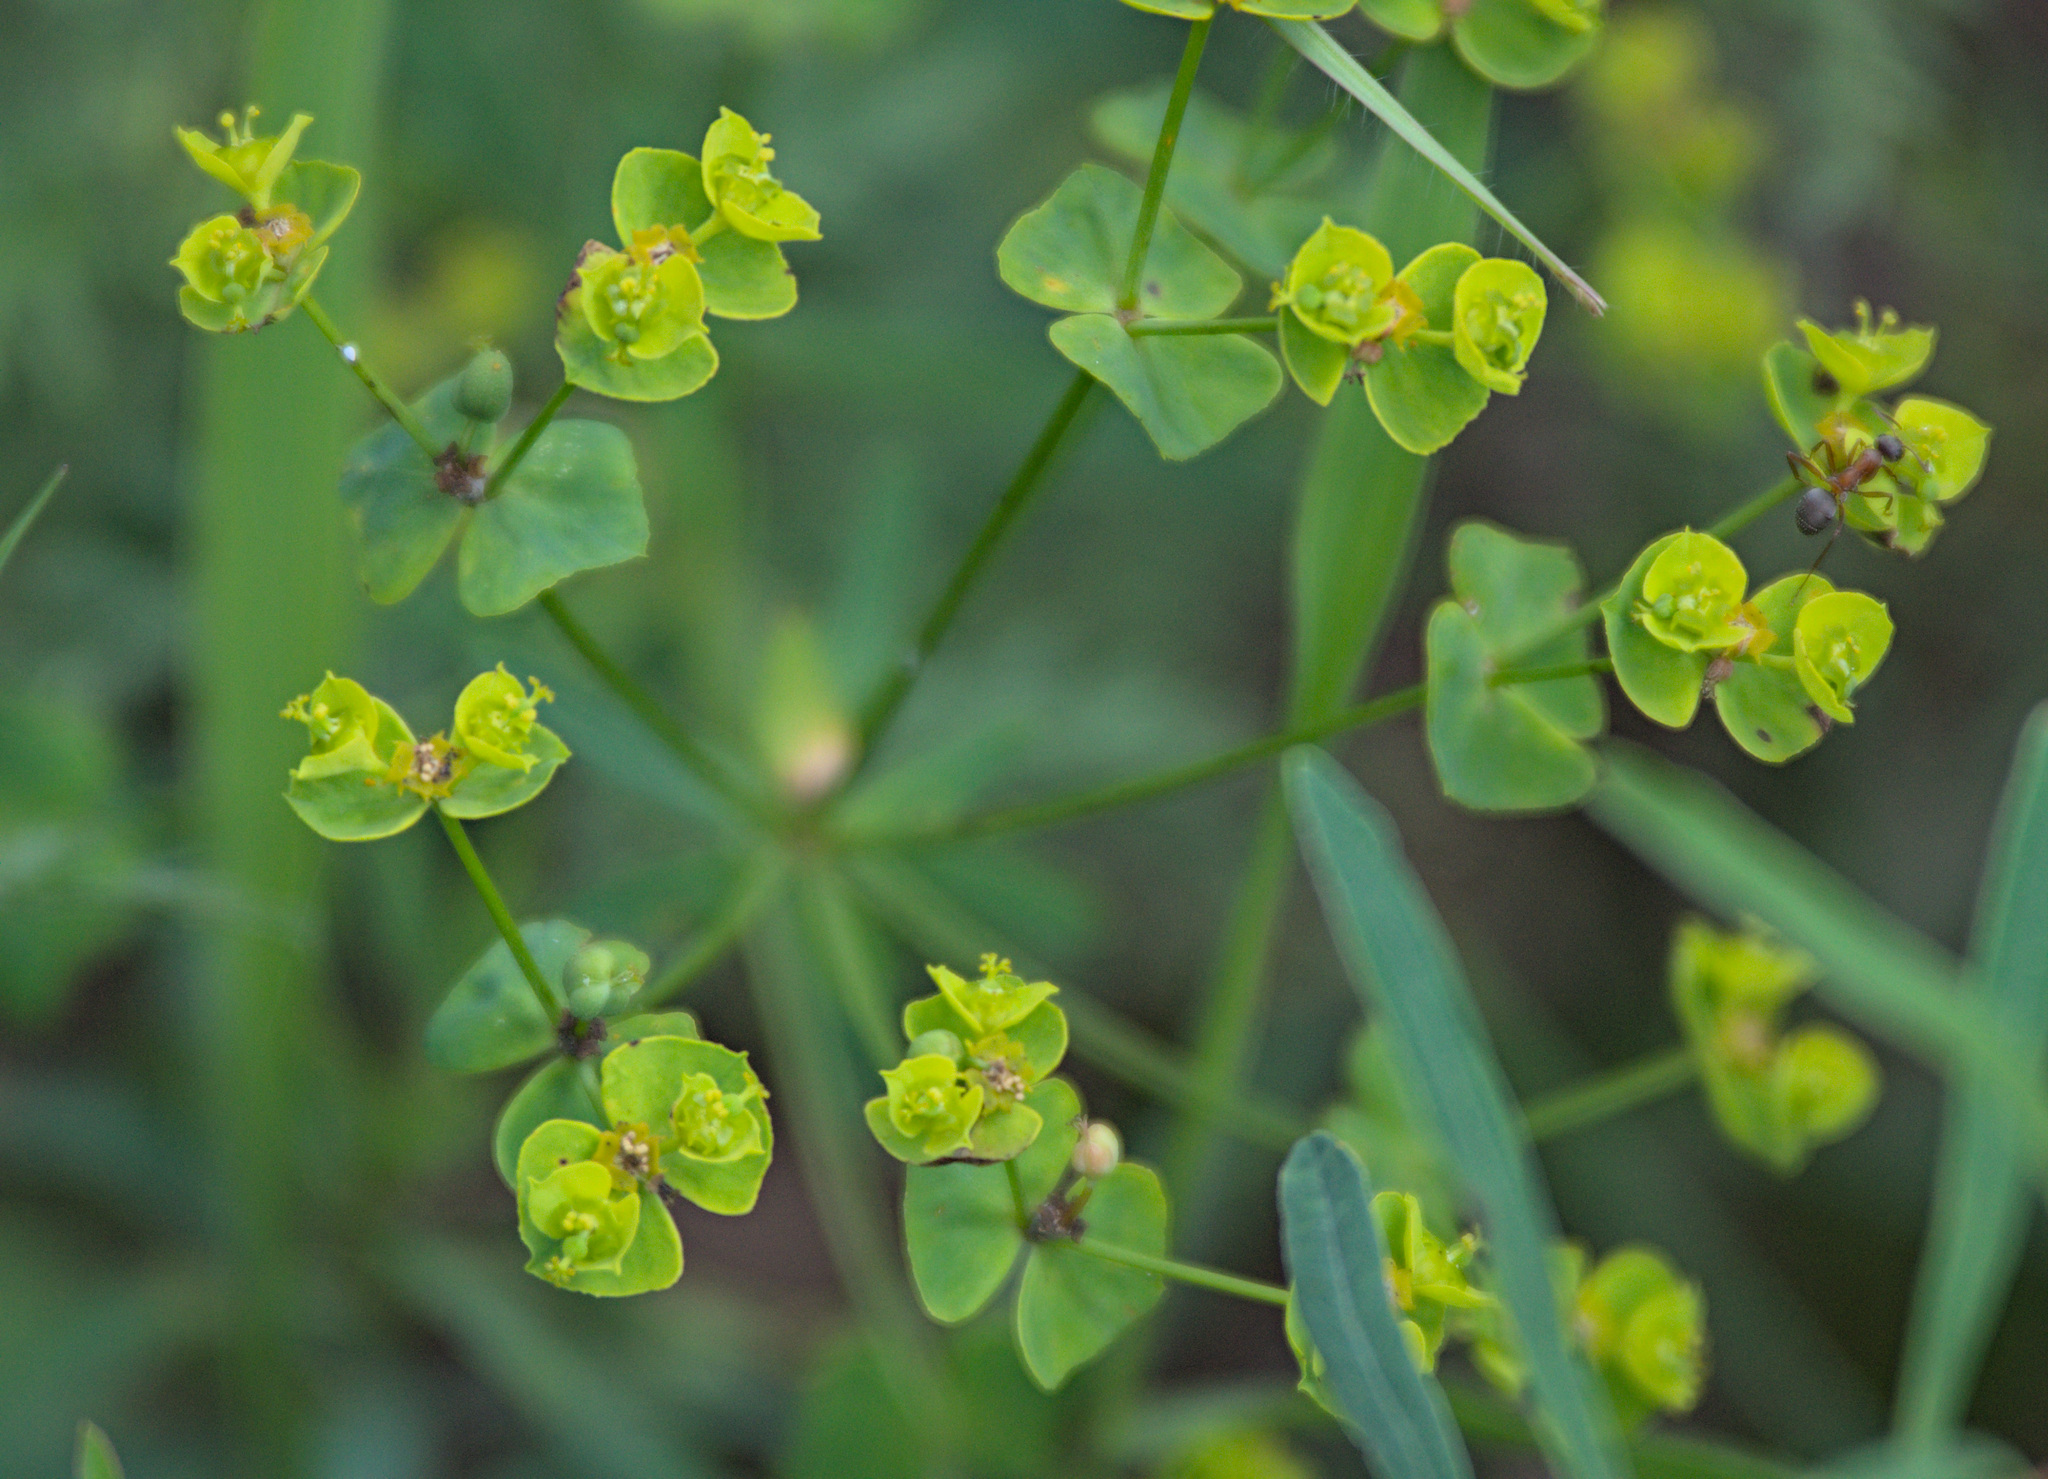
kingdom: Plantae
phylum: Tracheophyta
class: Magnoliopsida
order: Malpighiales
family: Euphorbiaceae
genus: Euphorbia
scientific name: Euphorbia virgata
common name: Leafy spurge
